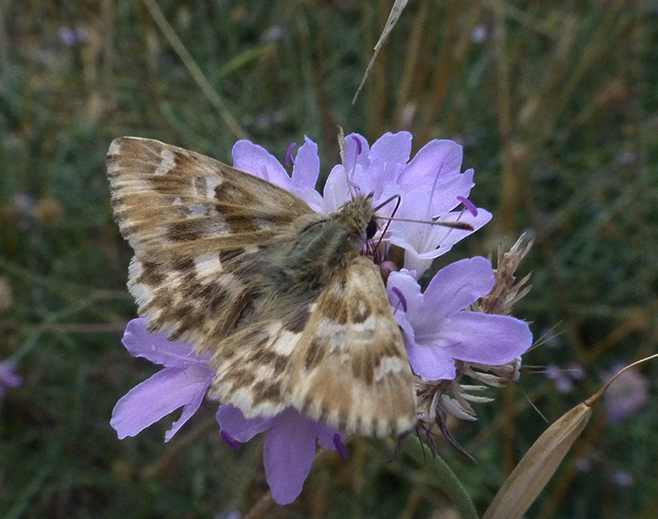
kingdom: Animalia
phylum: Arthropoda
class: Insecta
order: Lepidoptera
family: Hesperiidae
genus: Carcharodus
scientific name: Carcharodus lavatherae
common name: Marbled skipper
